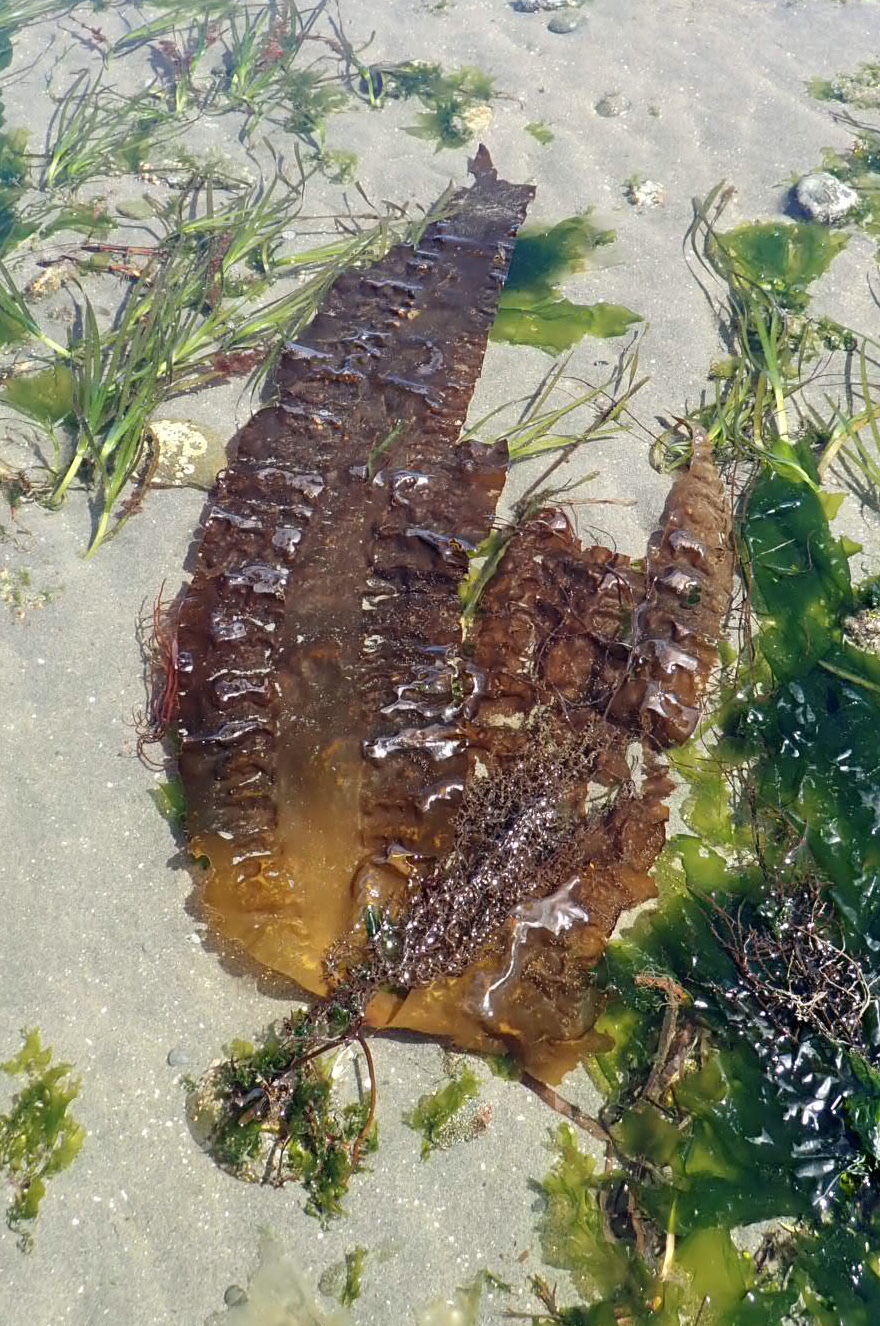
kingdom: Chromista
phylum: Ochrophyta
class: Phaeophyceae
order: Laminariales
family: Costariaceae
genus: Costaria
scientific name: Costaria costata
